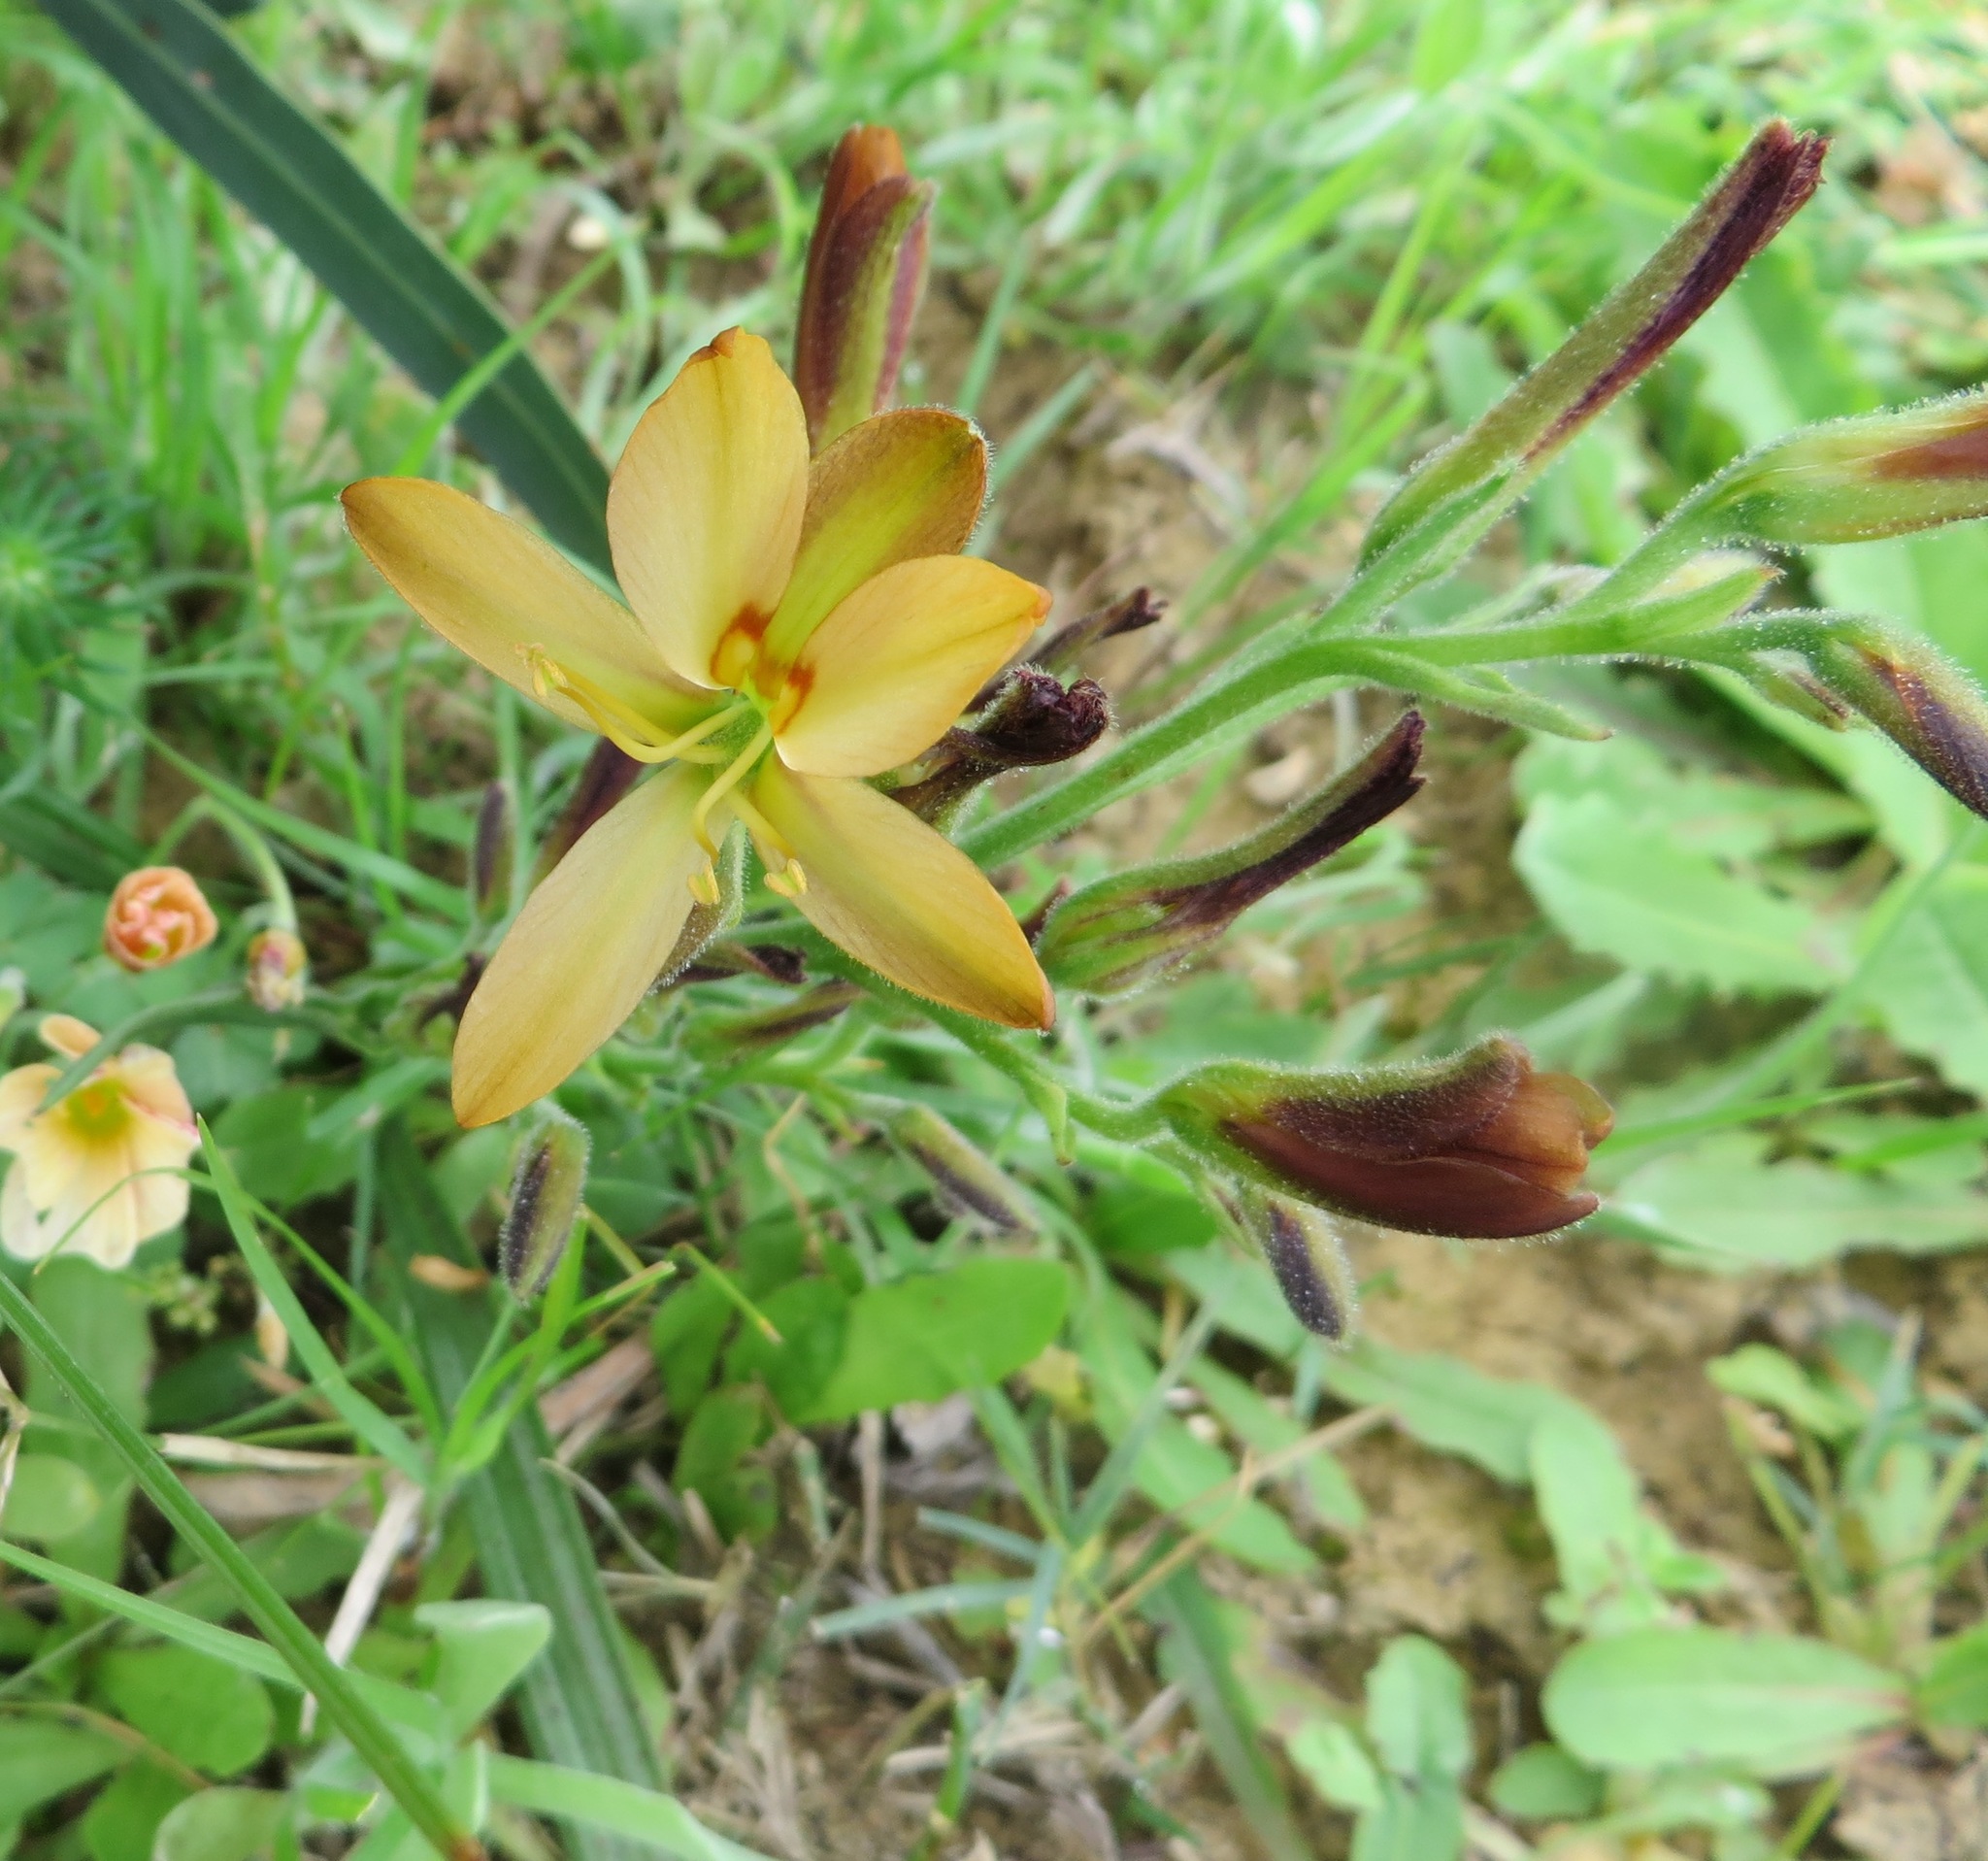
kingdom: Plantae
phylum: Tracheophyta
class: Liliopsida
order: Commelinales
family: Haemodoraceae
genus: Wachendorfia
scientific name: Wachendorfia multiflora
